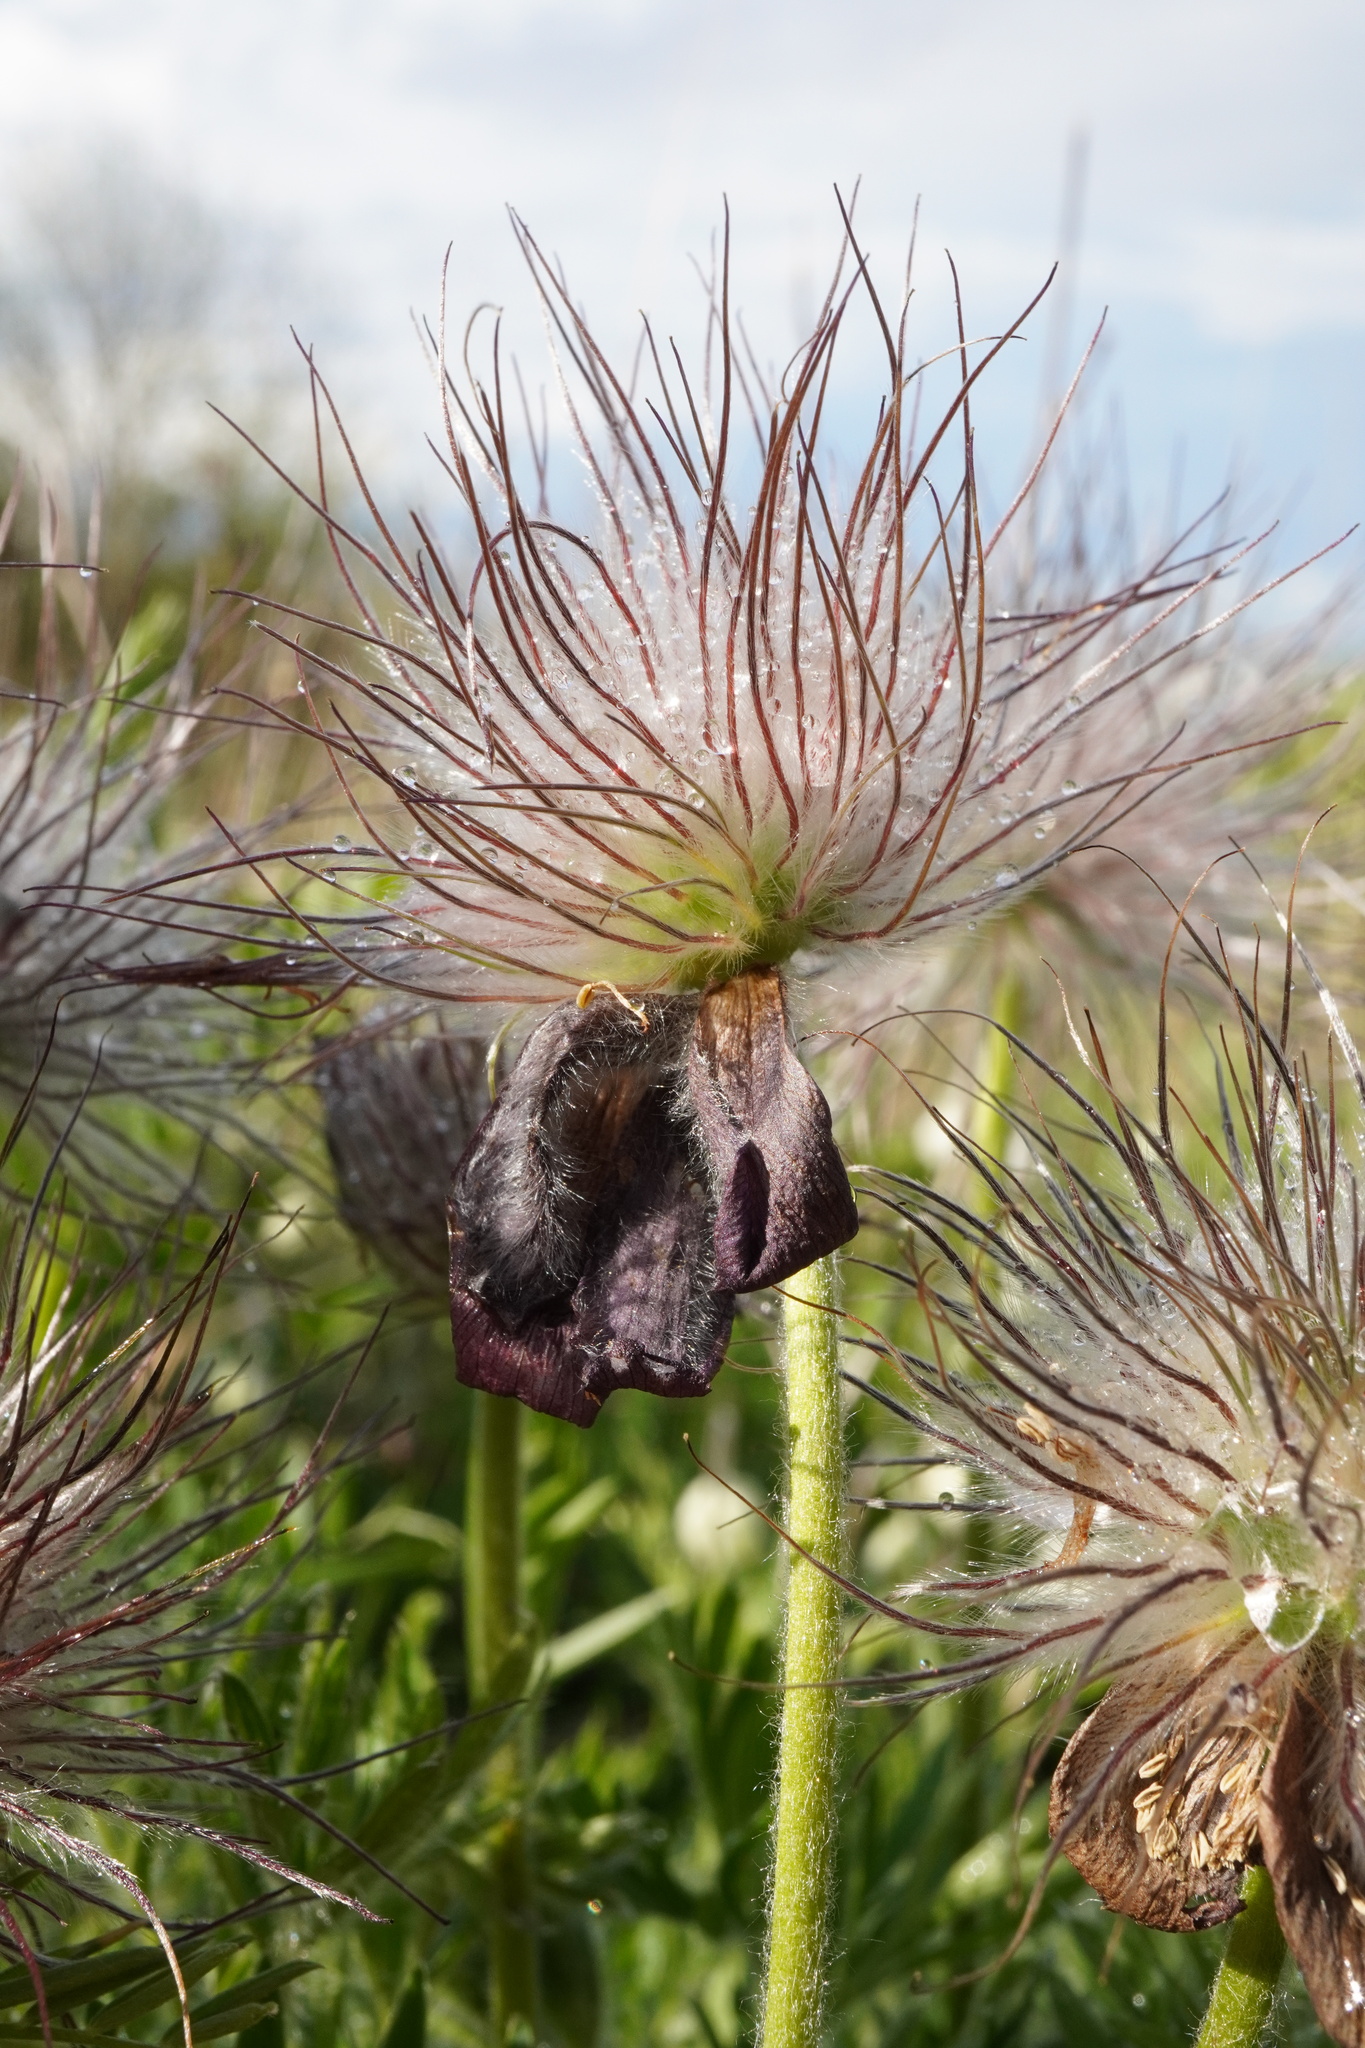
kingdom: Plantae
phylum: Tracheophyta
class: Magnoliopsida
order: Ranunculales
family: Ranunculaceae
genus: Pulsatilla
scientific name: Pulsatilla pratensis
